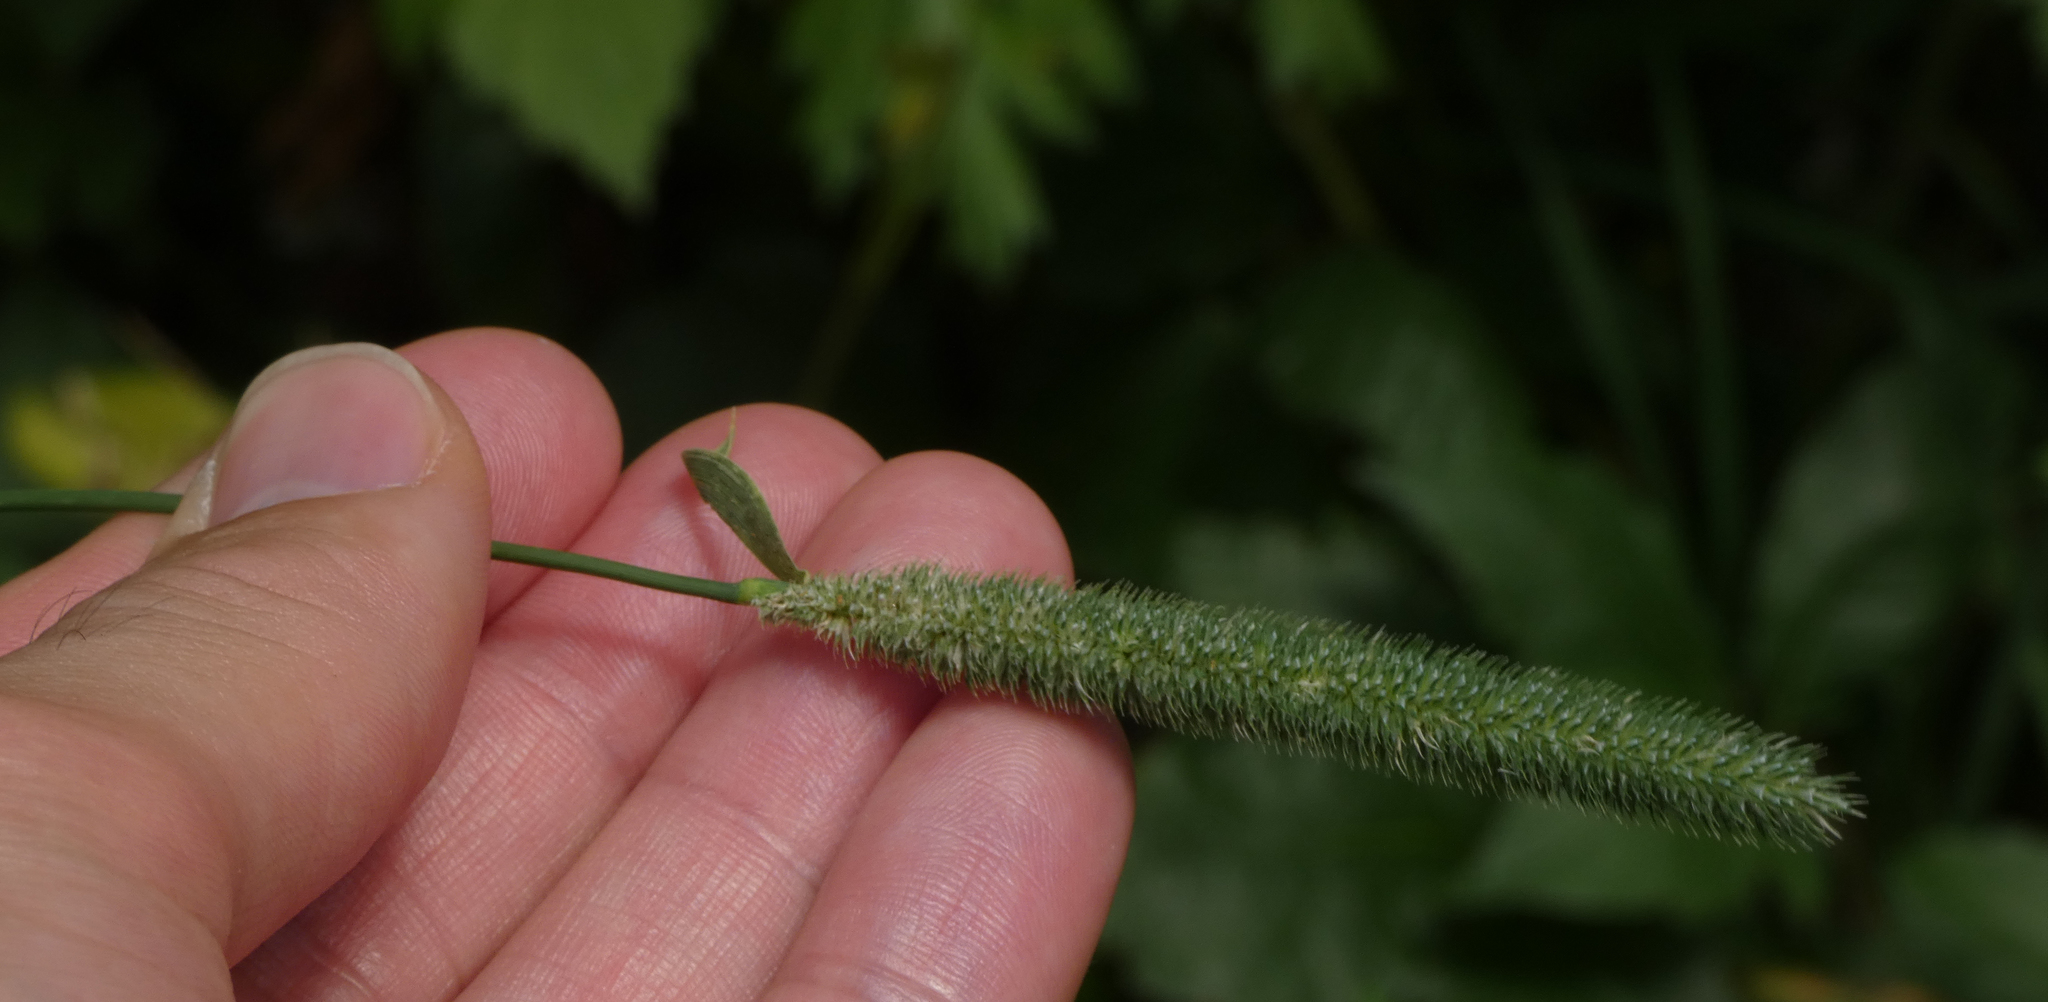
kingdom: Plantae
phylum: Tracheophyta
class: Liliopsida
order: Poales
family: Poaceae
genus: Phleum
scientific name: Phleum pratense
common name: Timothy grass
